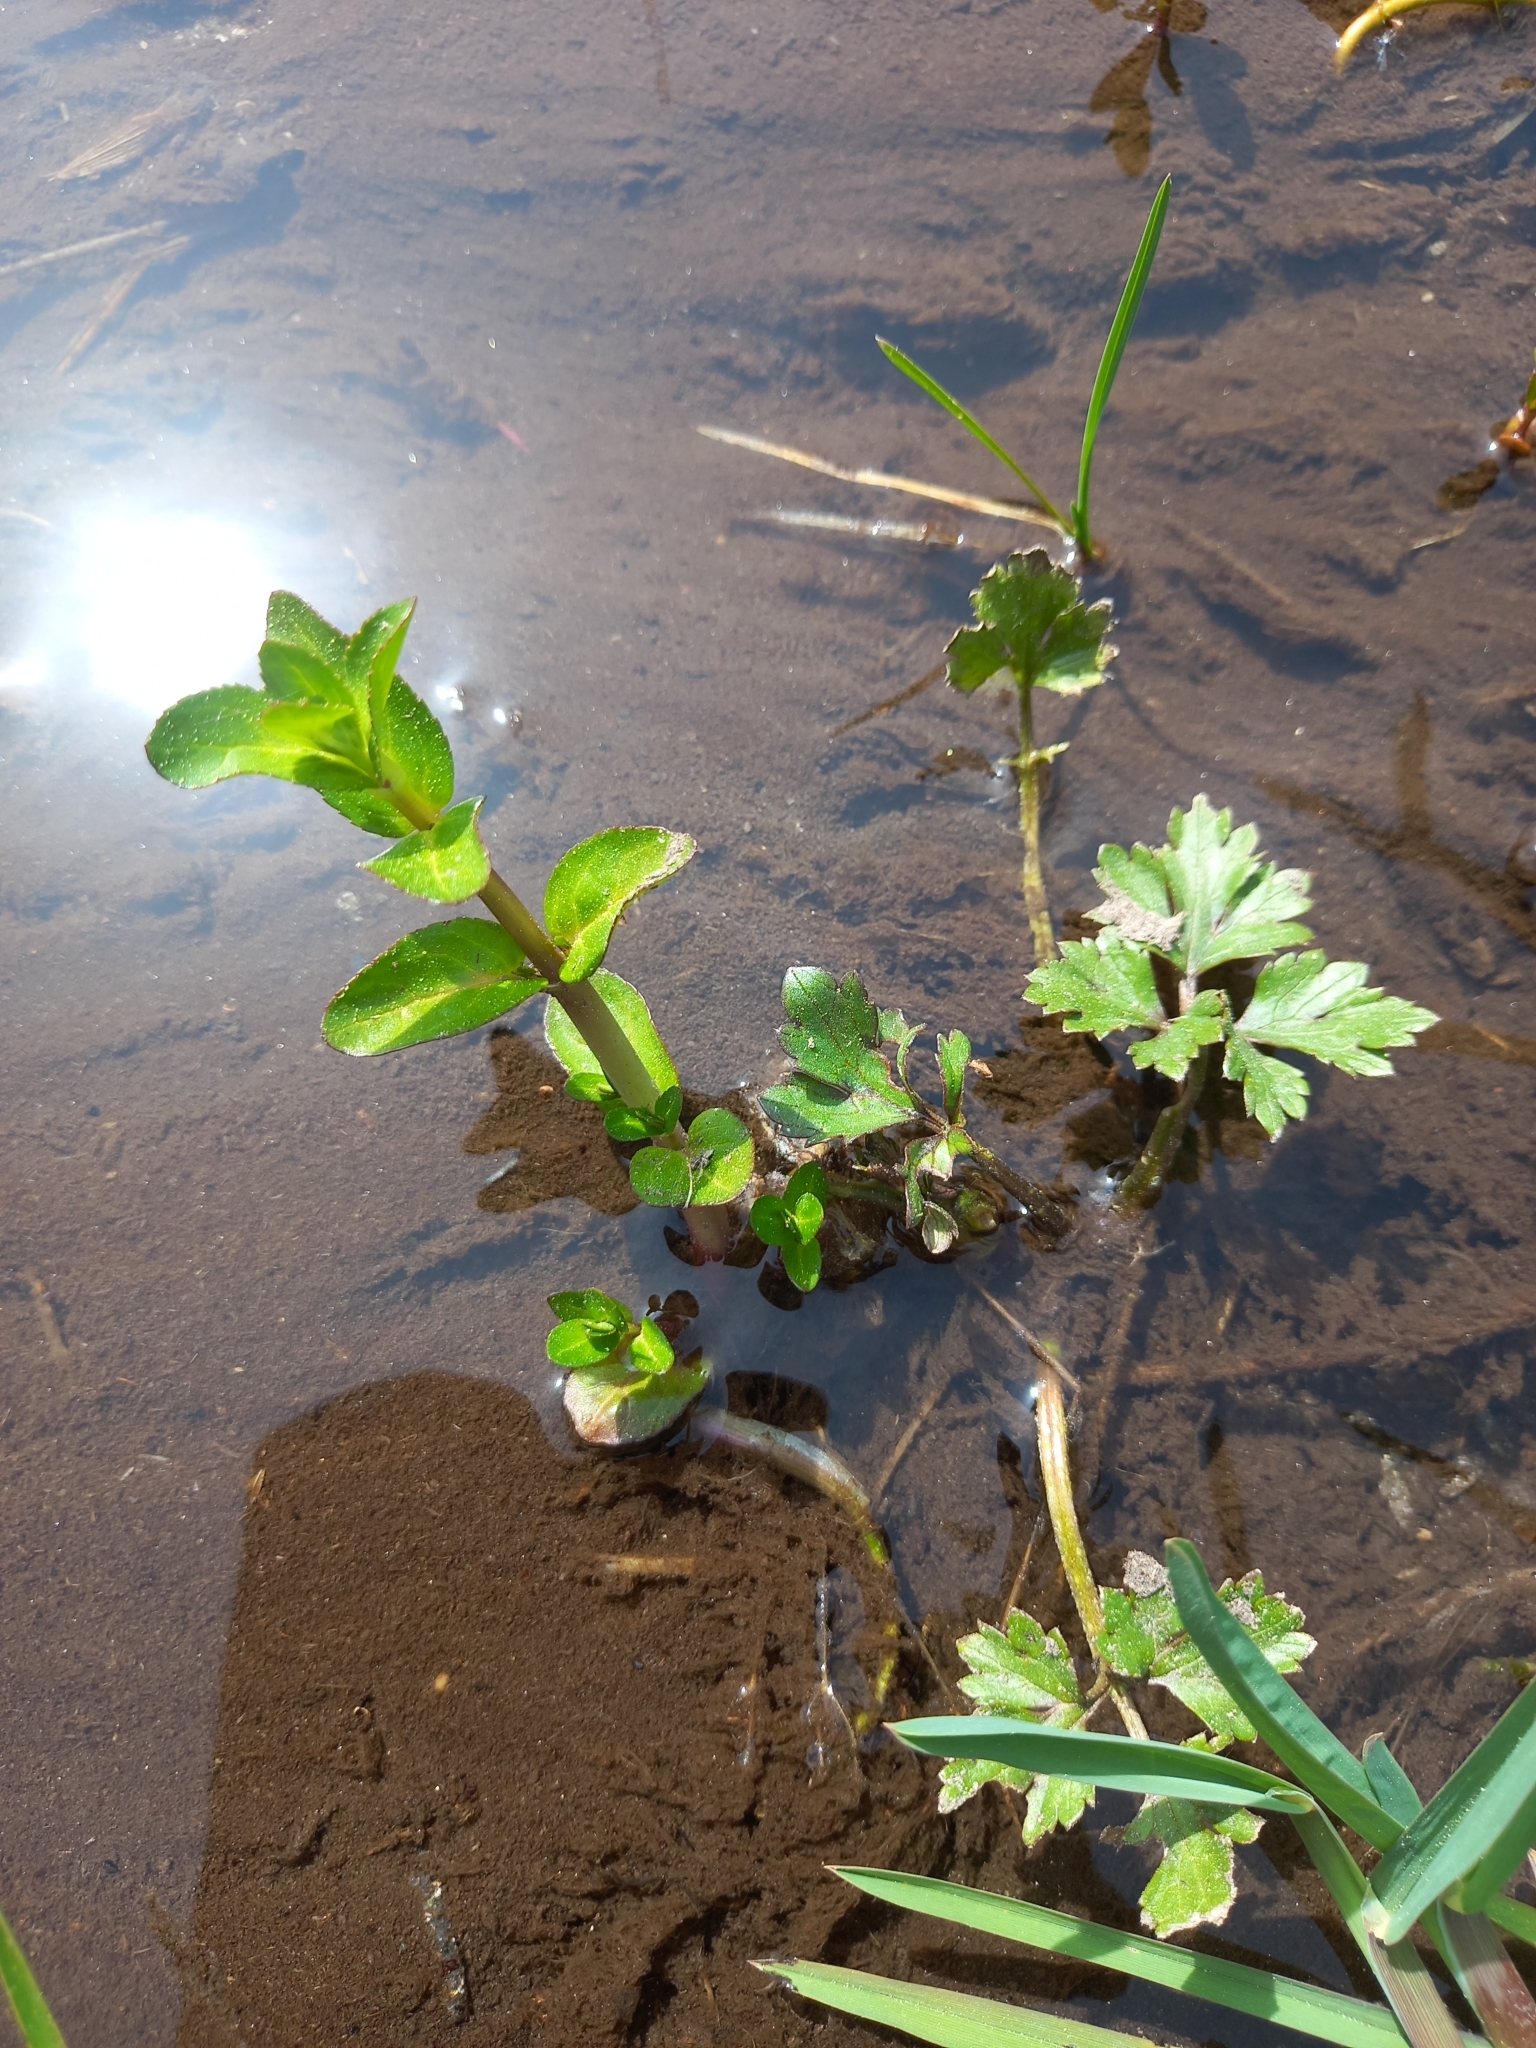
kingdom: Plantae
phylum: Tracheophyta
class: Magnoliopsida
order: Lamiales
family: Plantaginaceae
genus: Veronica
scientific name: Veronica beccabunga
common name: Brooklime
